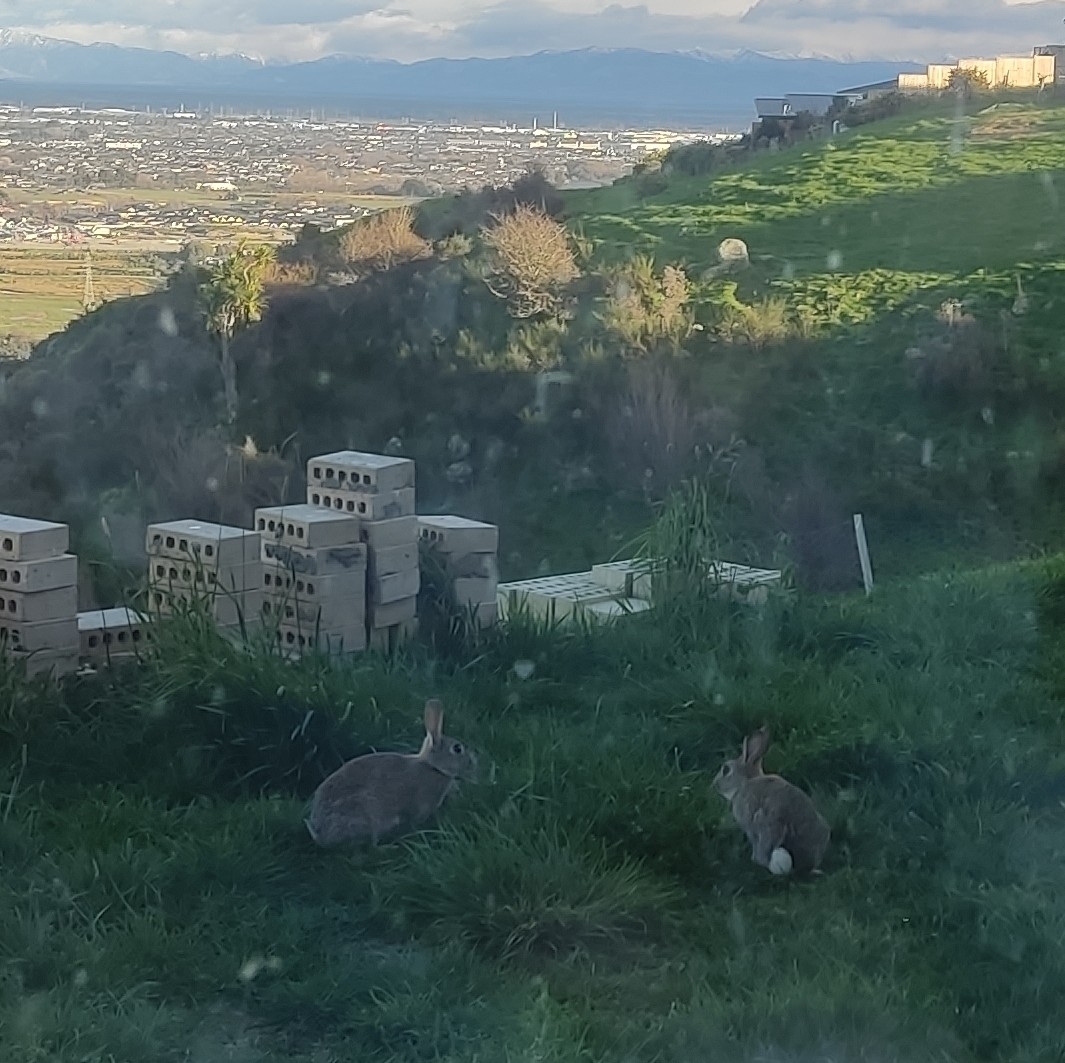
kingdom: Animalia
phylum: Chordata
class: Mammalia
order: Lagomorpha
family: Leporidae
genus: Oryctolagus
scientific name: Oryctolagus cuniculus
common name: European rabbit
